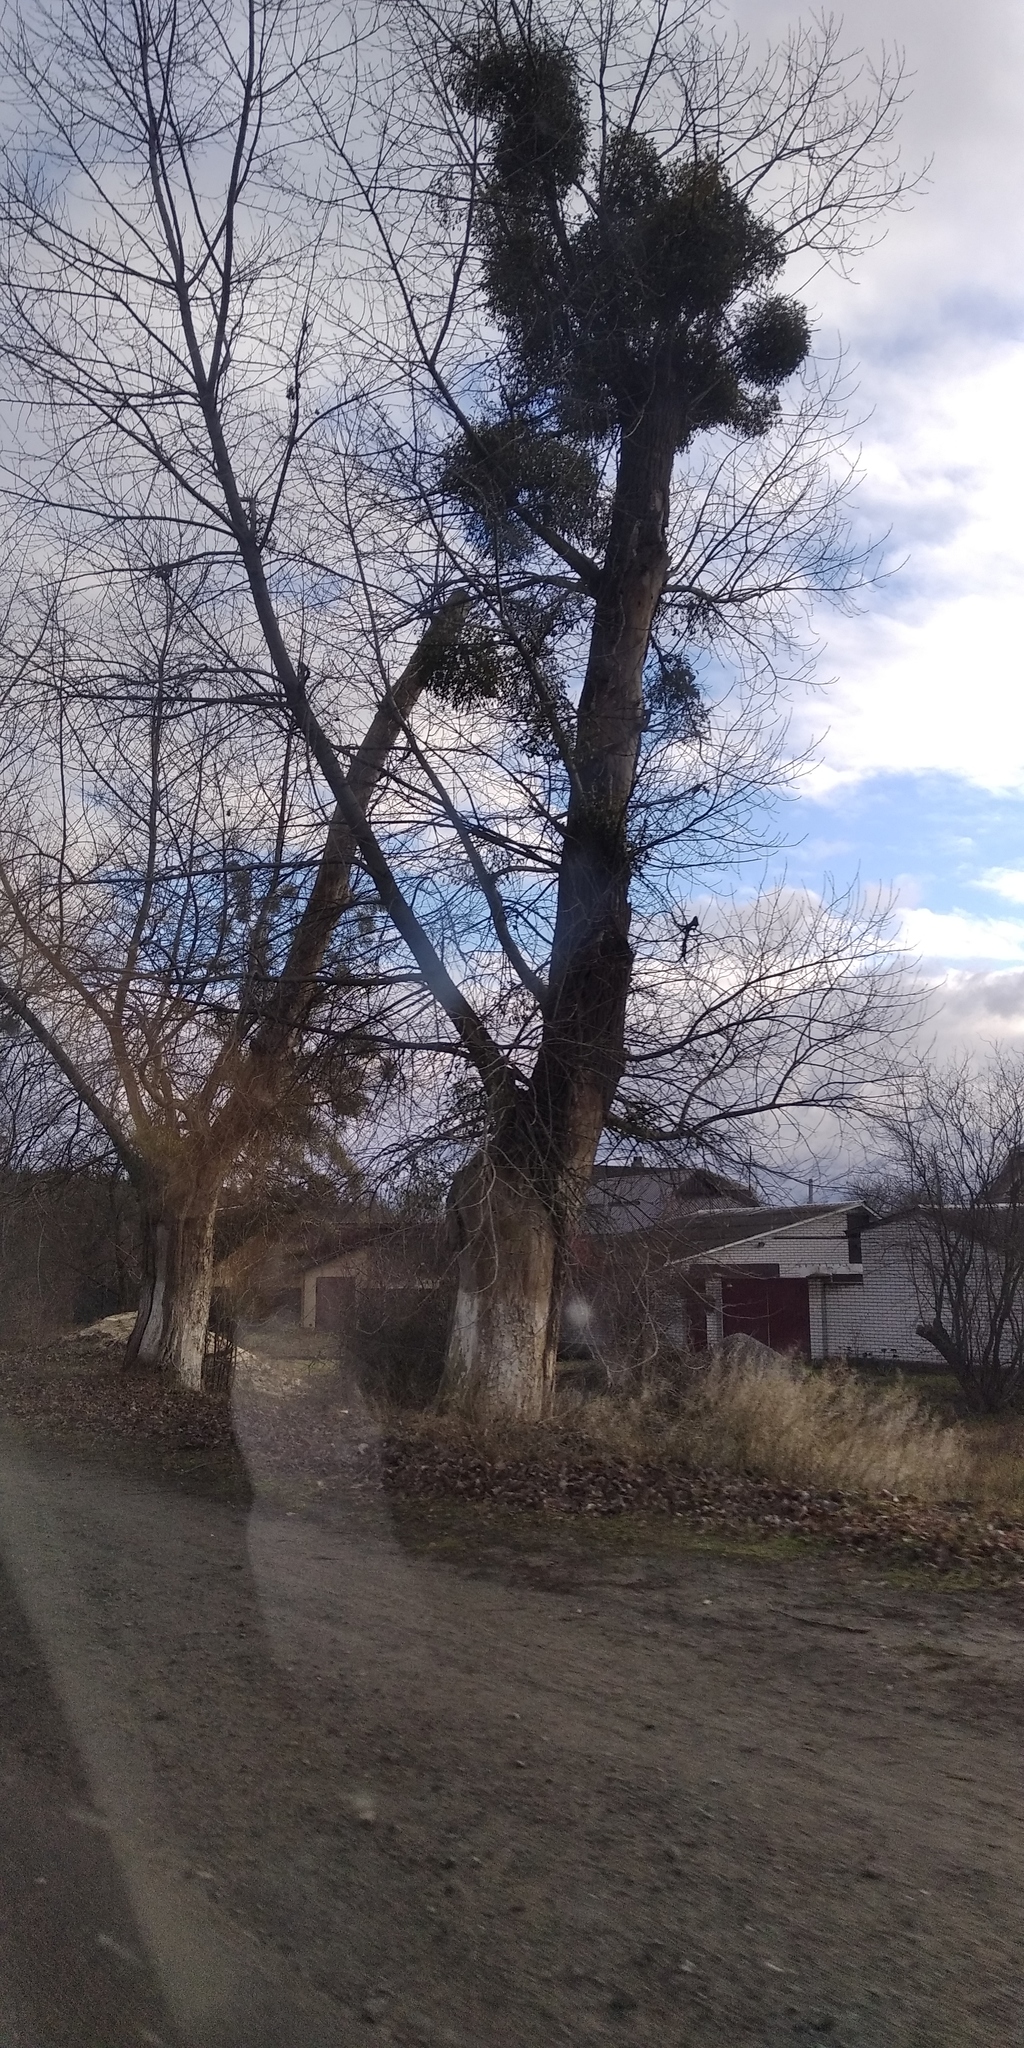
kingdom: Plantae
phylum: Tracheophyta
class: Magnoliopsida
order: Santalales
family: Viscaceae
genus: Viscum
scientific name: Viscum album
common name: Mistletoe
